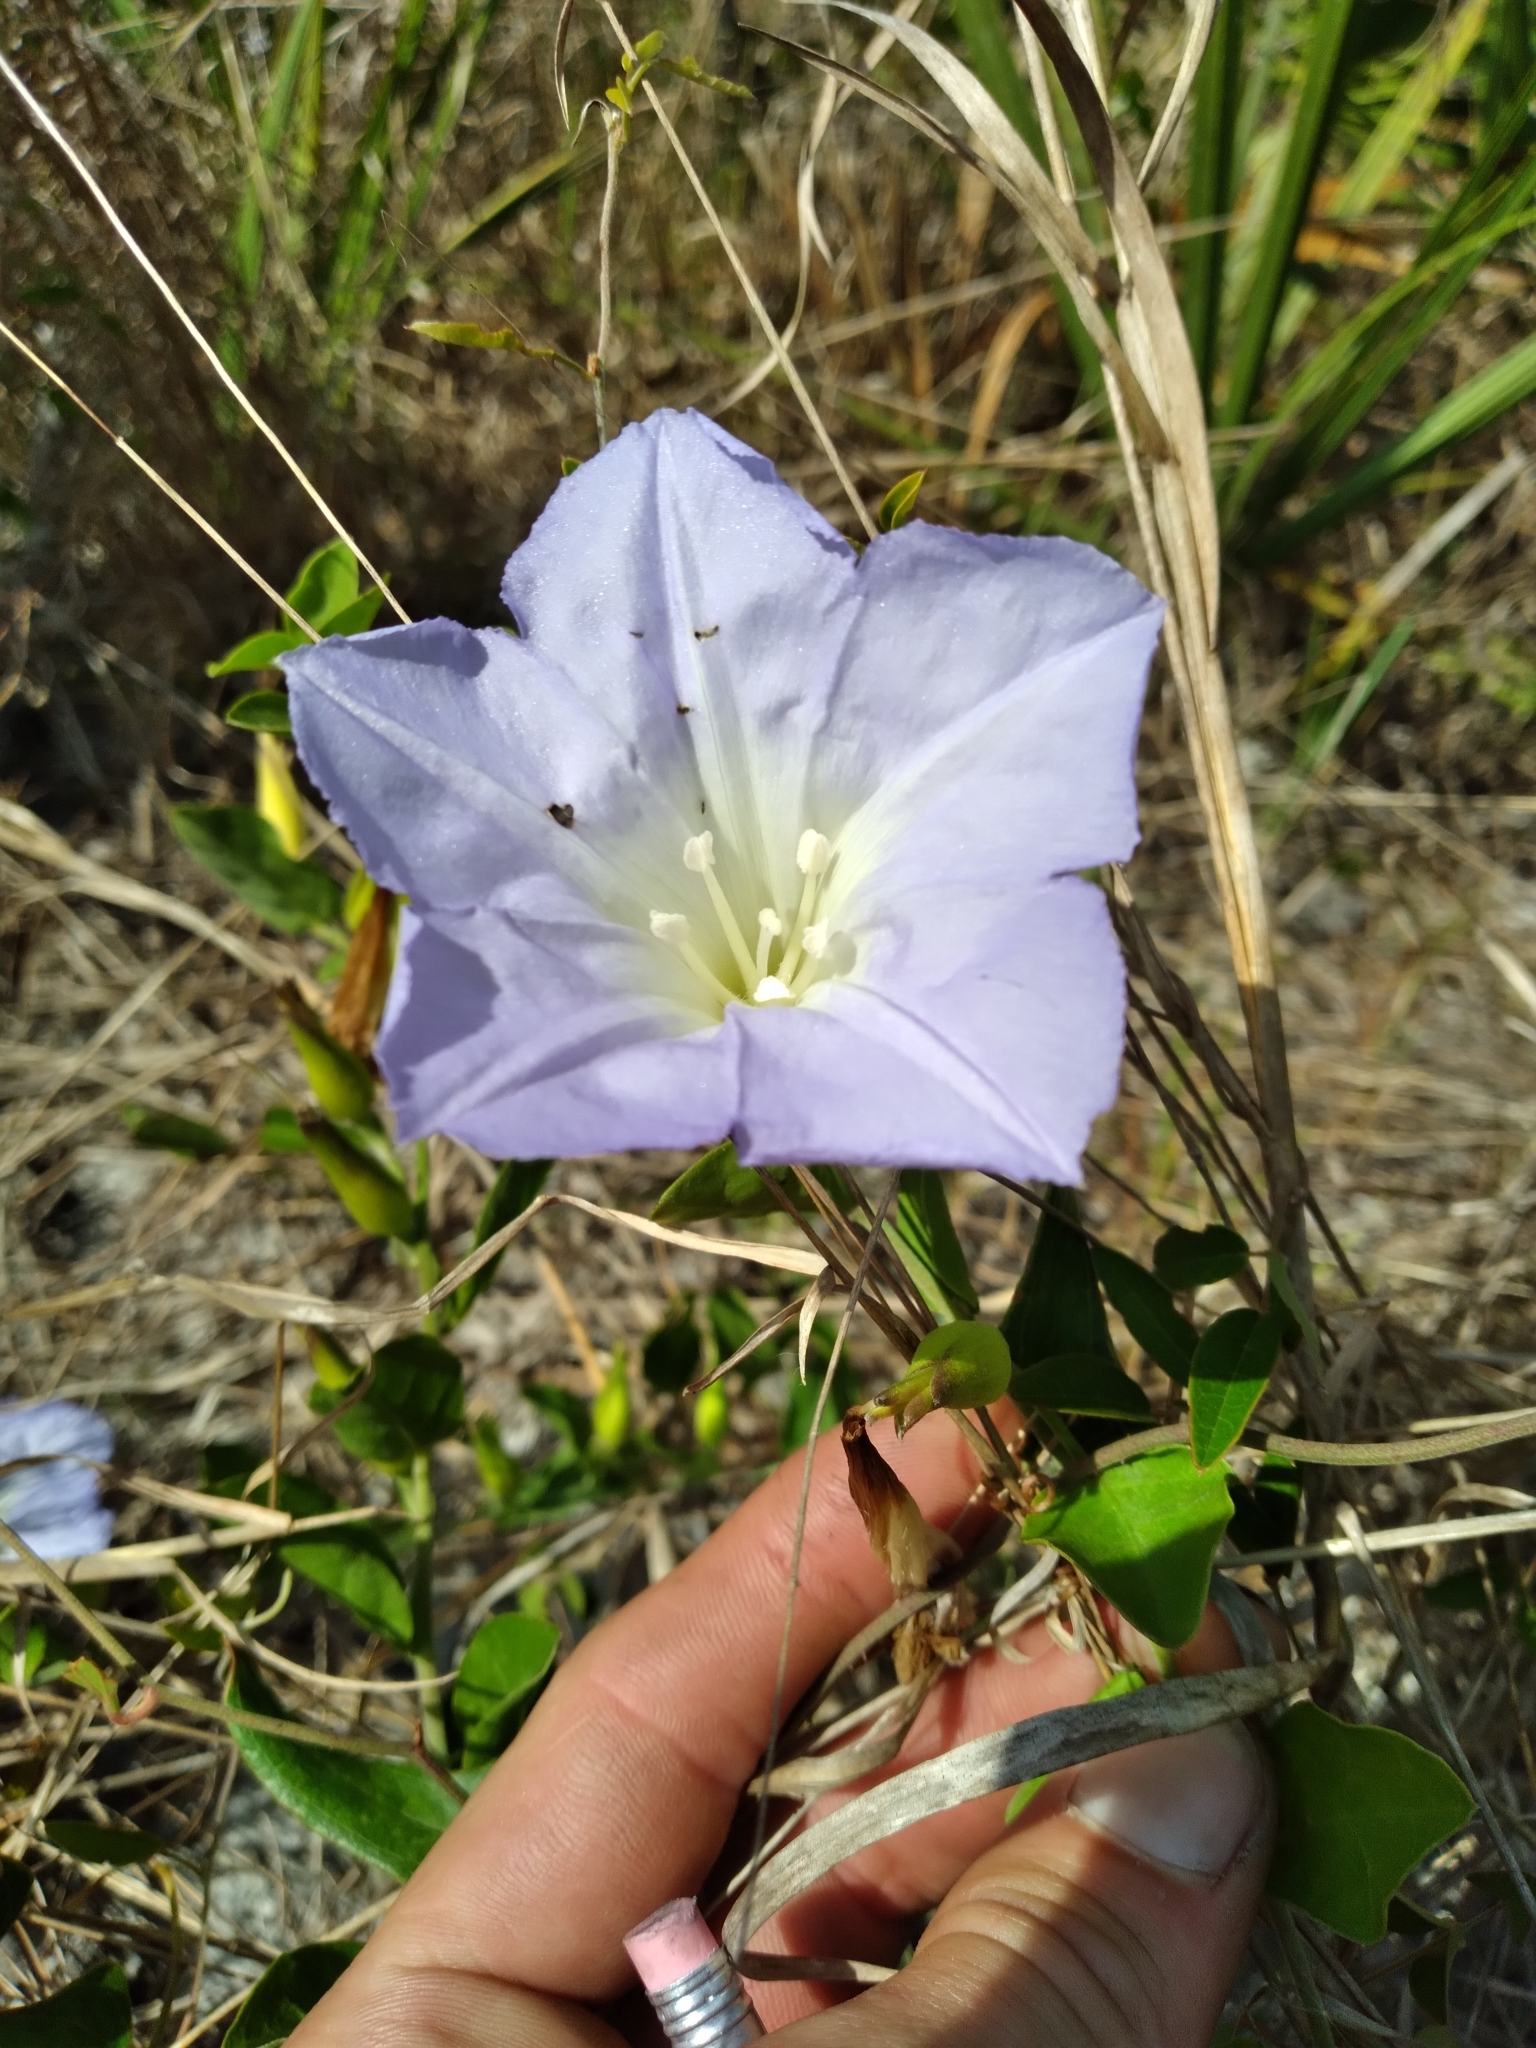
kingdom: Plantae
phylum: Tracheophyta
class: Magnoliopsida
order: Solanales
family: Convolvulaceae
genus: Bonamia
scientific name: Bonamia grandiflora
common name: Florida bonamia
